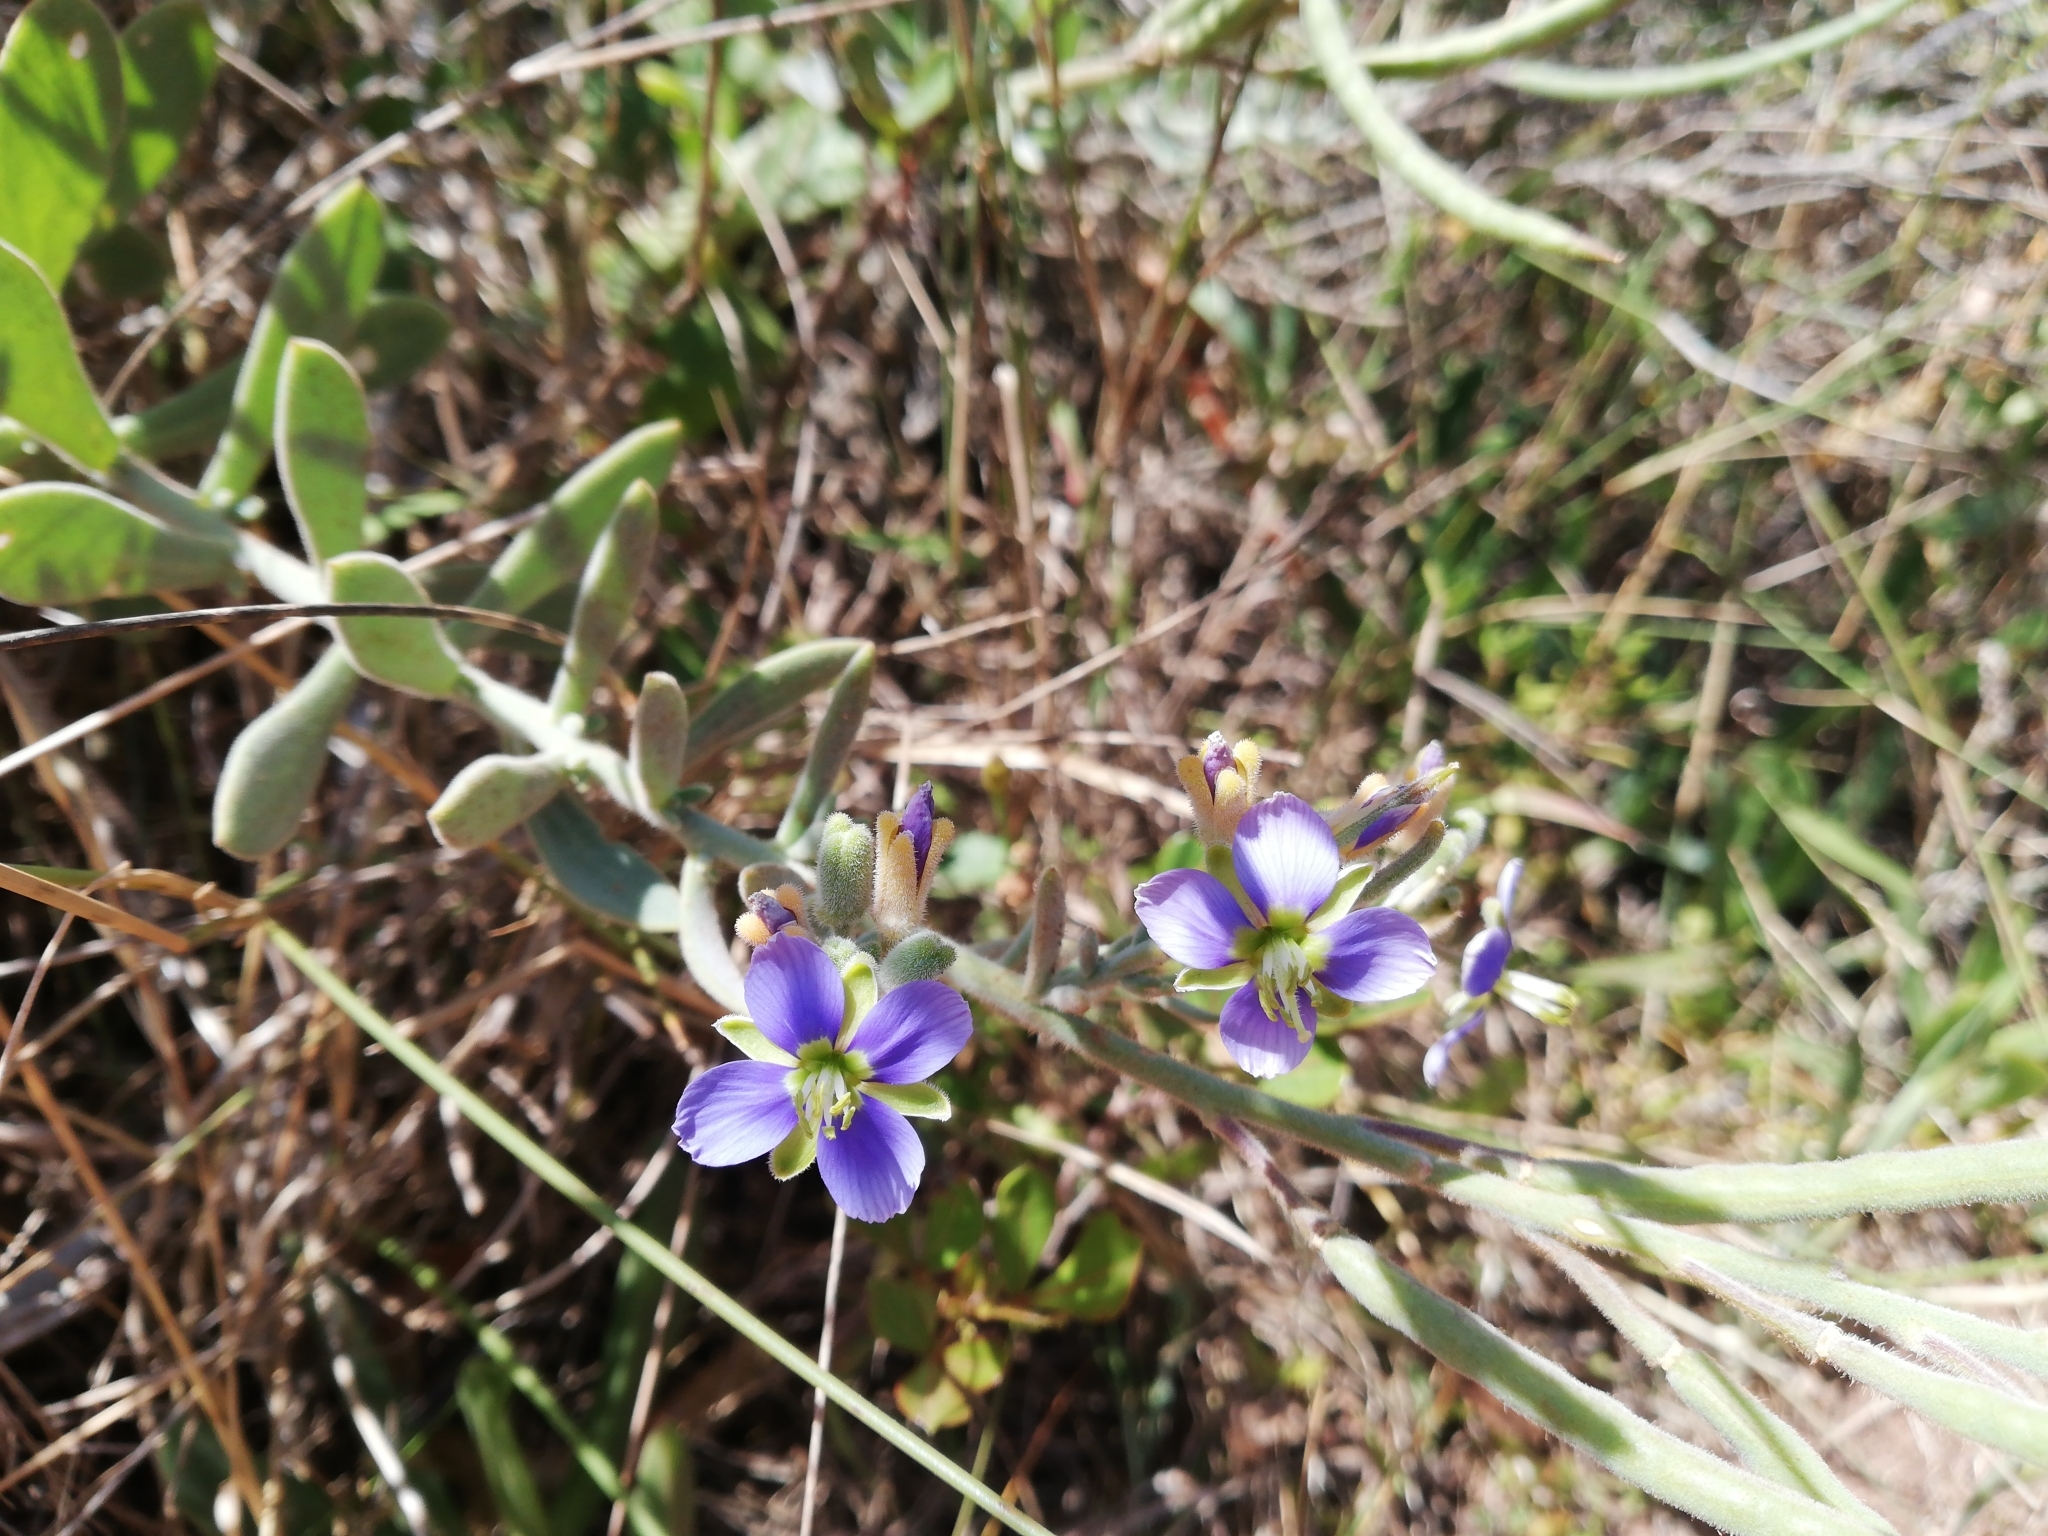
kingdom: Plantae
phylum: Tracheophyta
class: Magnoliopsida
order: Brassicales
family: Brassicaceae
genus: Heliophila
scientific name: Heliophila cinerea
